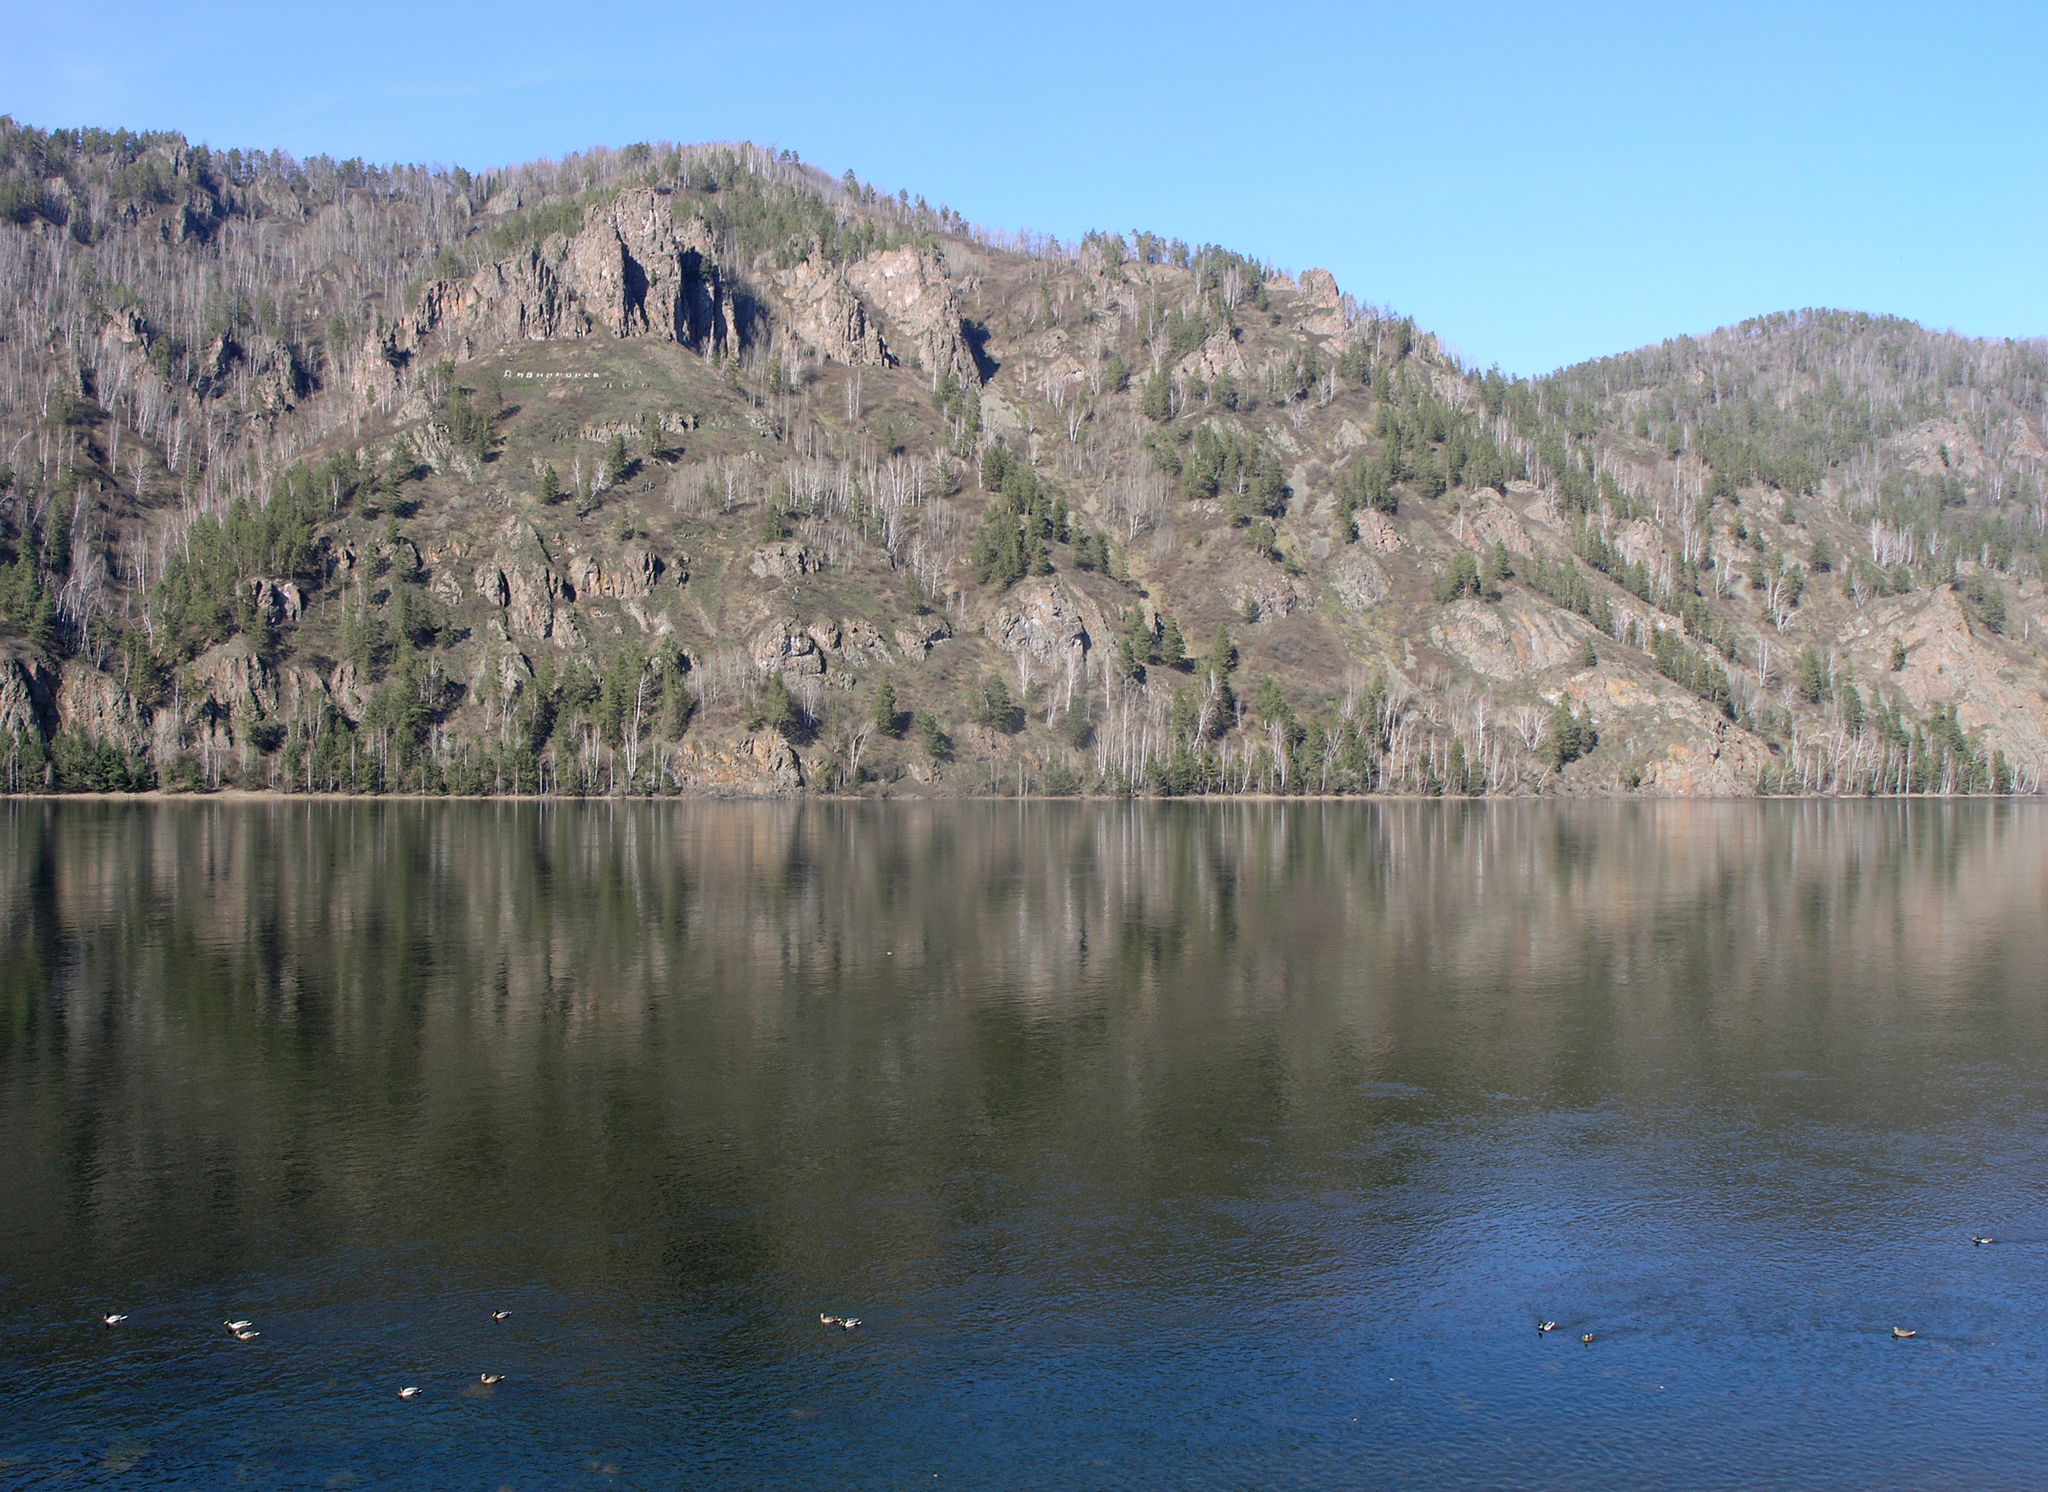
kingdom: Plantae
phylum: Tracheophyta
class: Pinopsida
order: Pinales
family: Pinaceae
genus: Pinus
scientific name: Pinus sylvestris
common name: Scots pine
